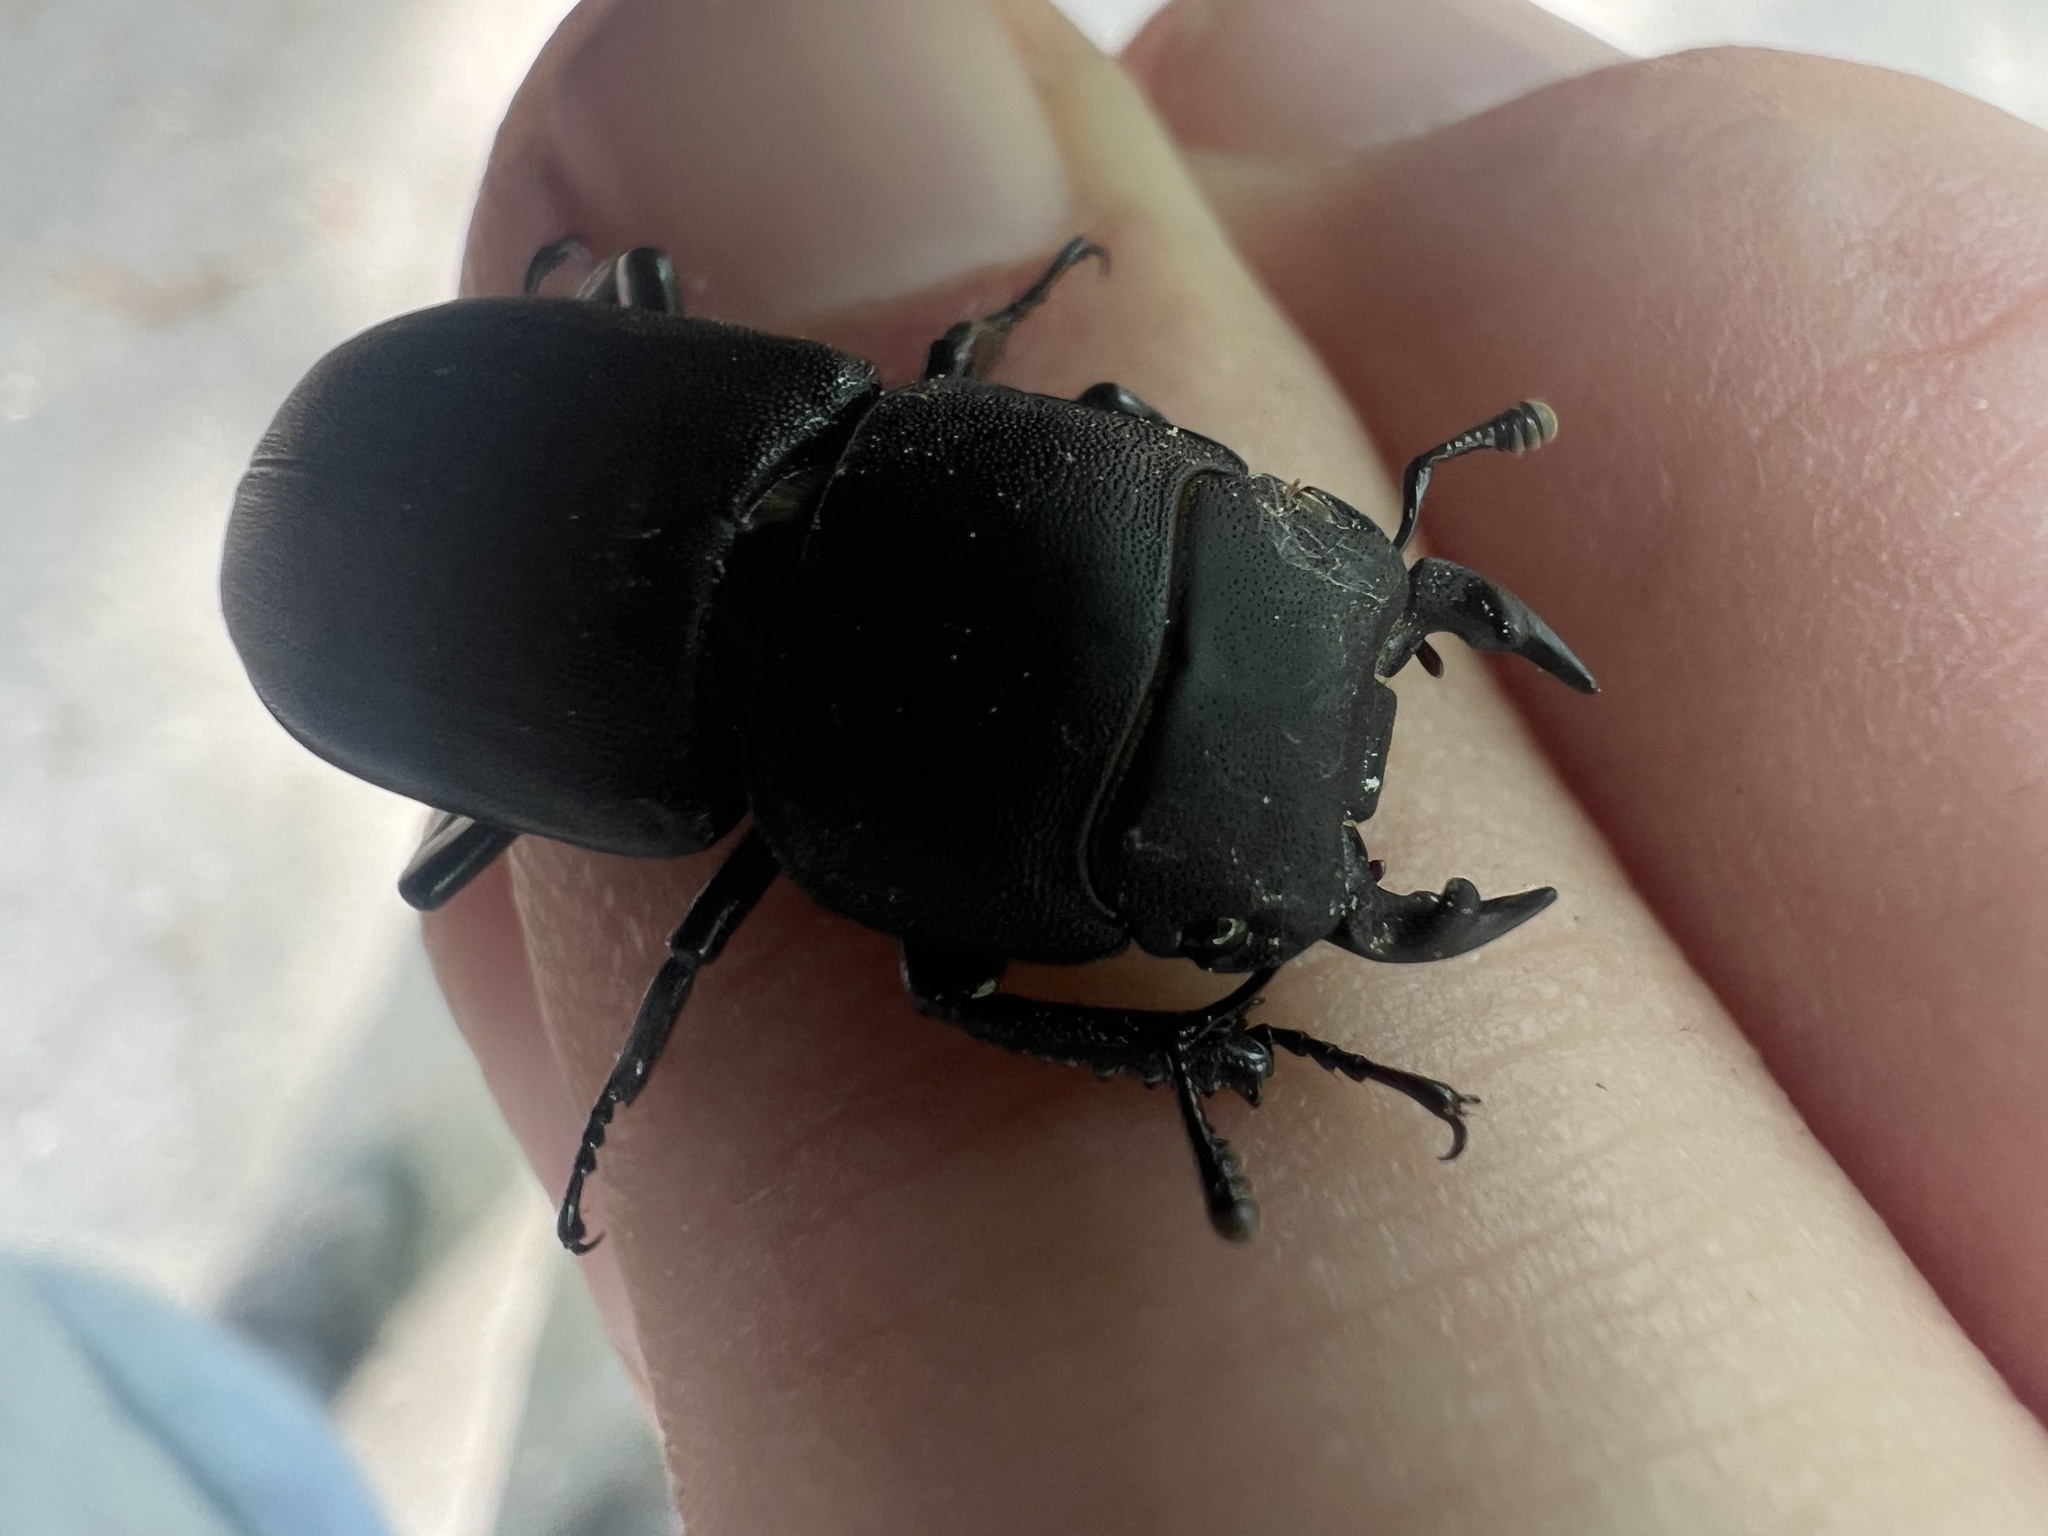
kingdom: Animalia
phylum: Arthropoda
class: Insecta
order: Coleoptera
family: Lucanidae
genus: Dorcus
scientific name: Dorcus parallelipipedus
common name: Lesser stag beetle
